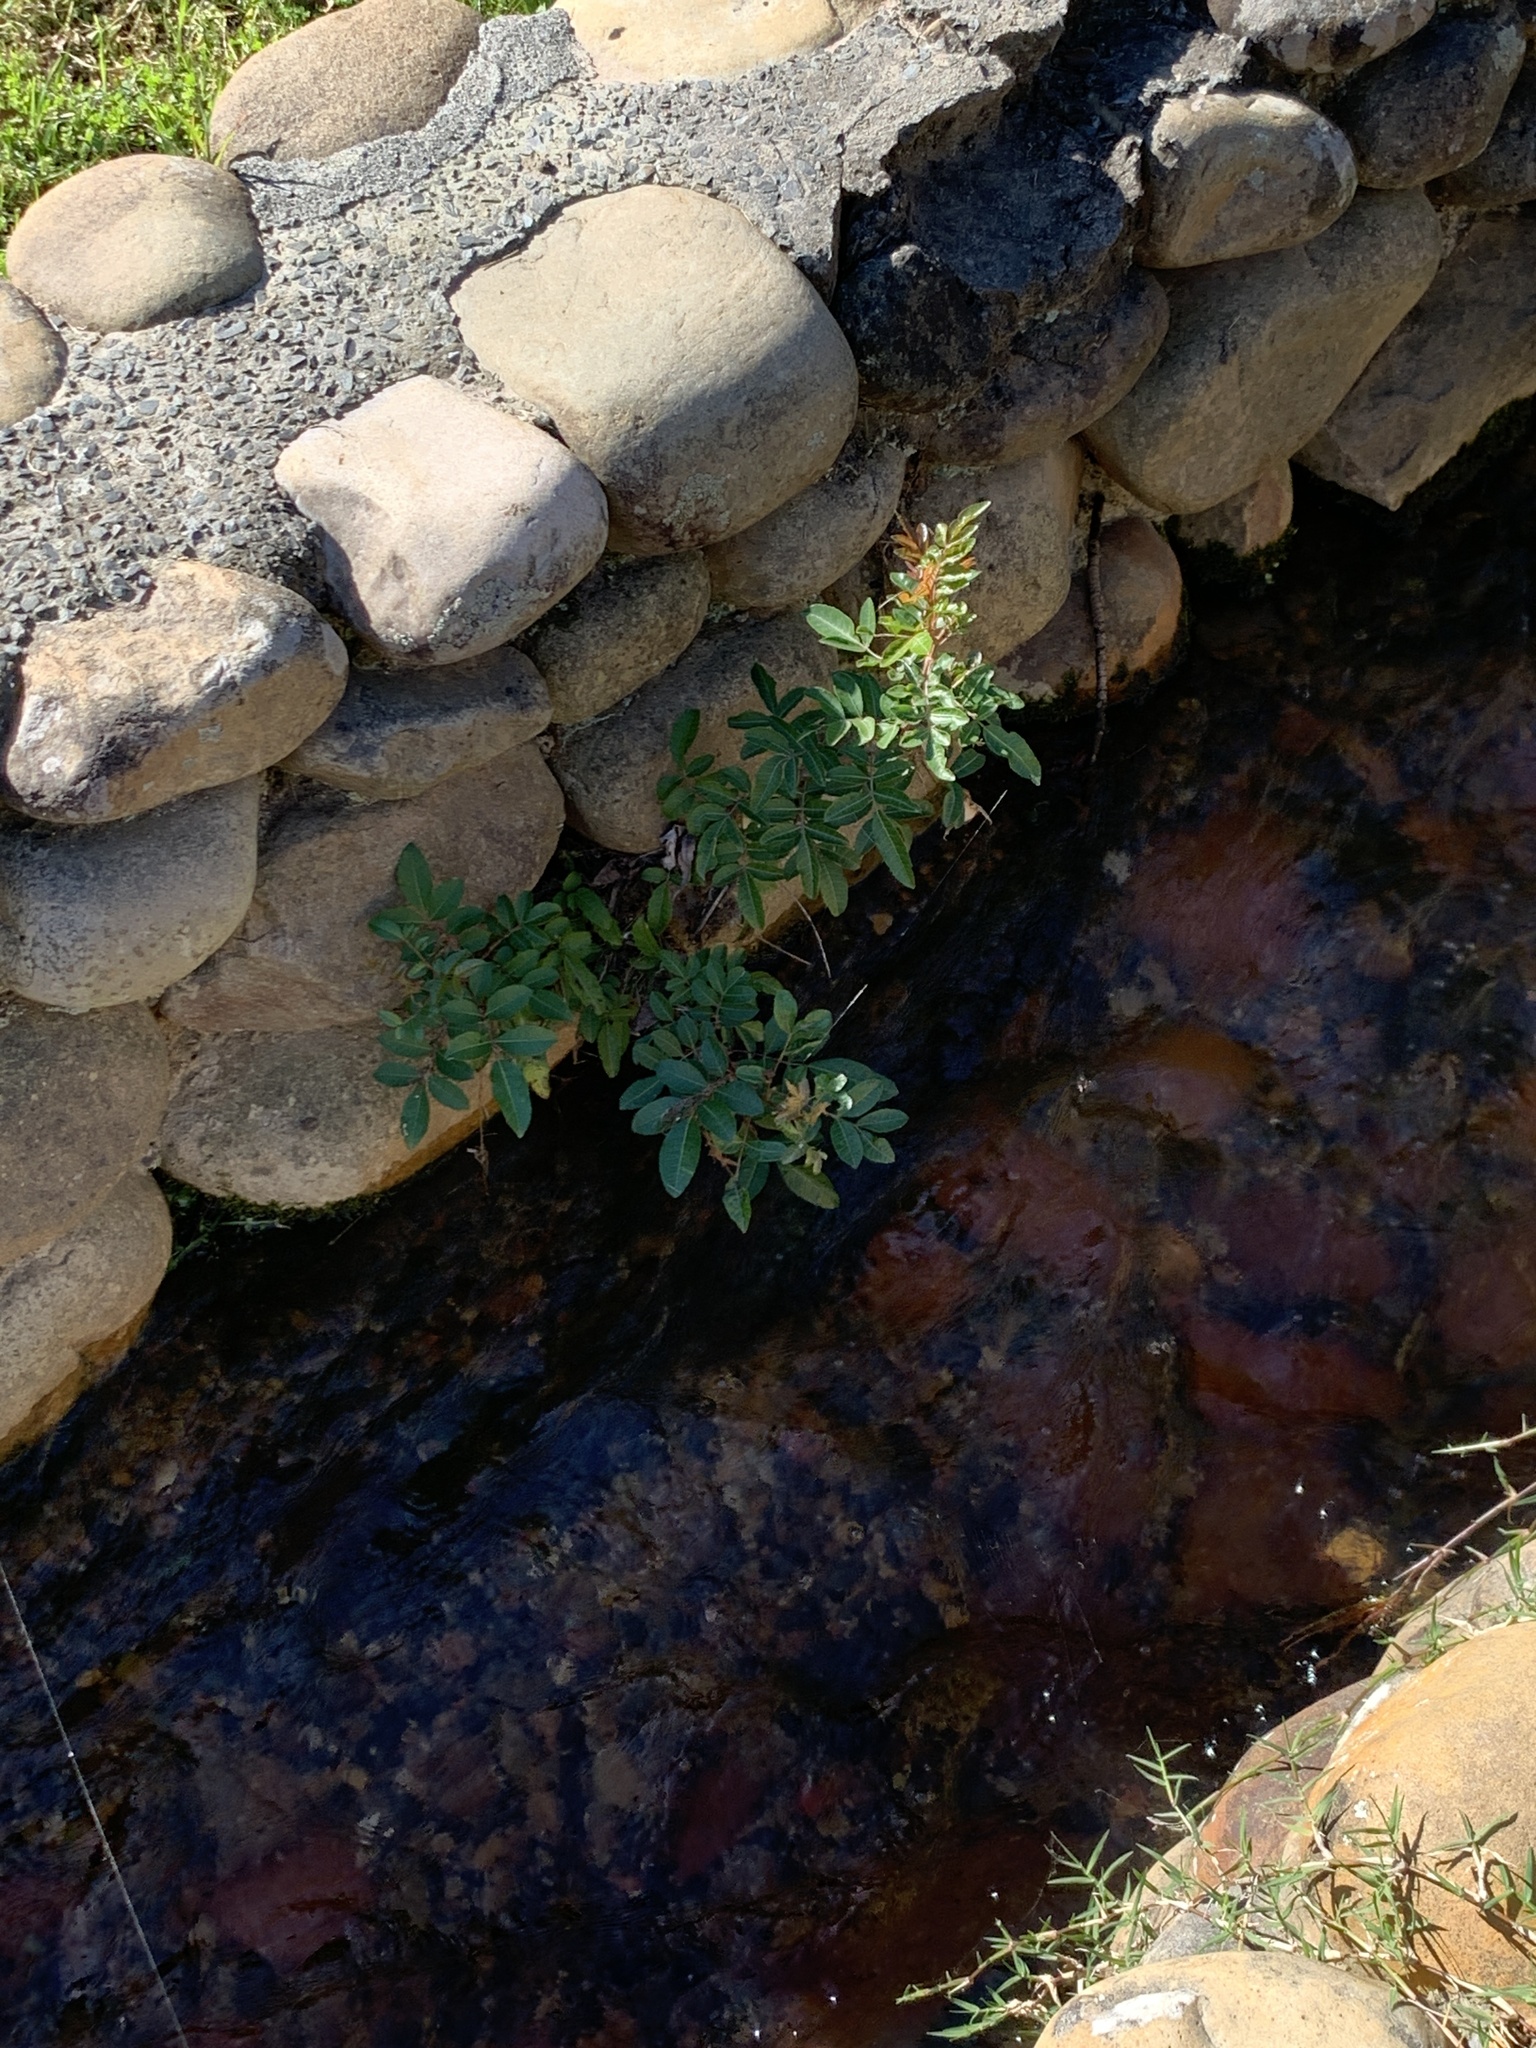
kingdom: Plantae
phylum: Tracheophyta
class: Magnoliopsida
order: Sapindales
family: Anacardiaceae
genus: Schinus
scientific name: Schinus terebinthifolia
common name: Brazilian peppertree
